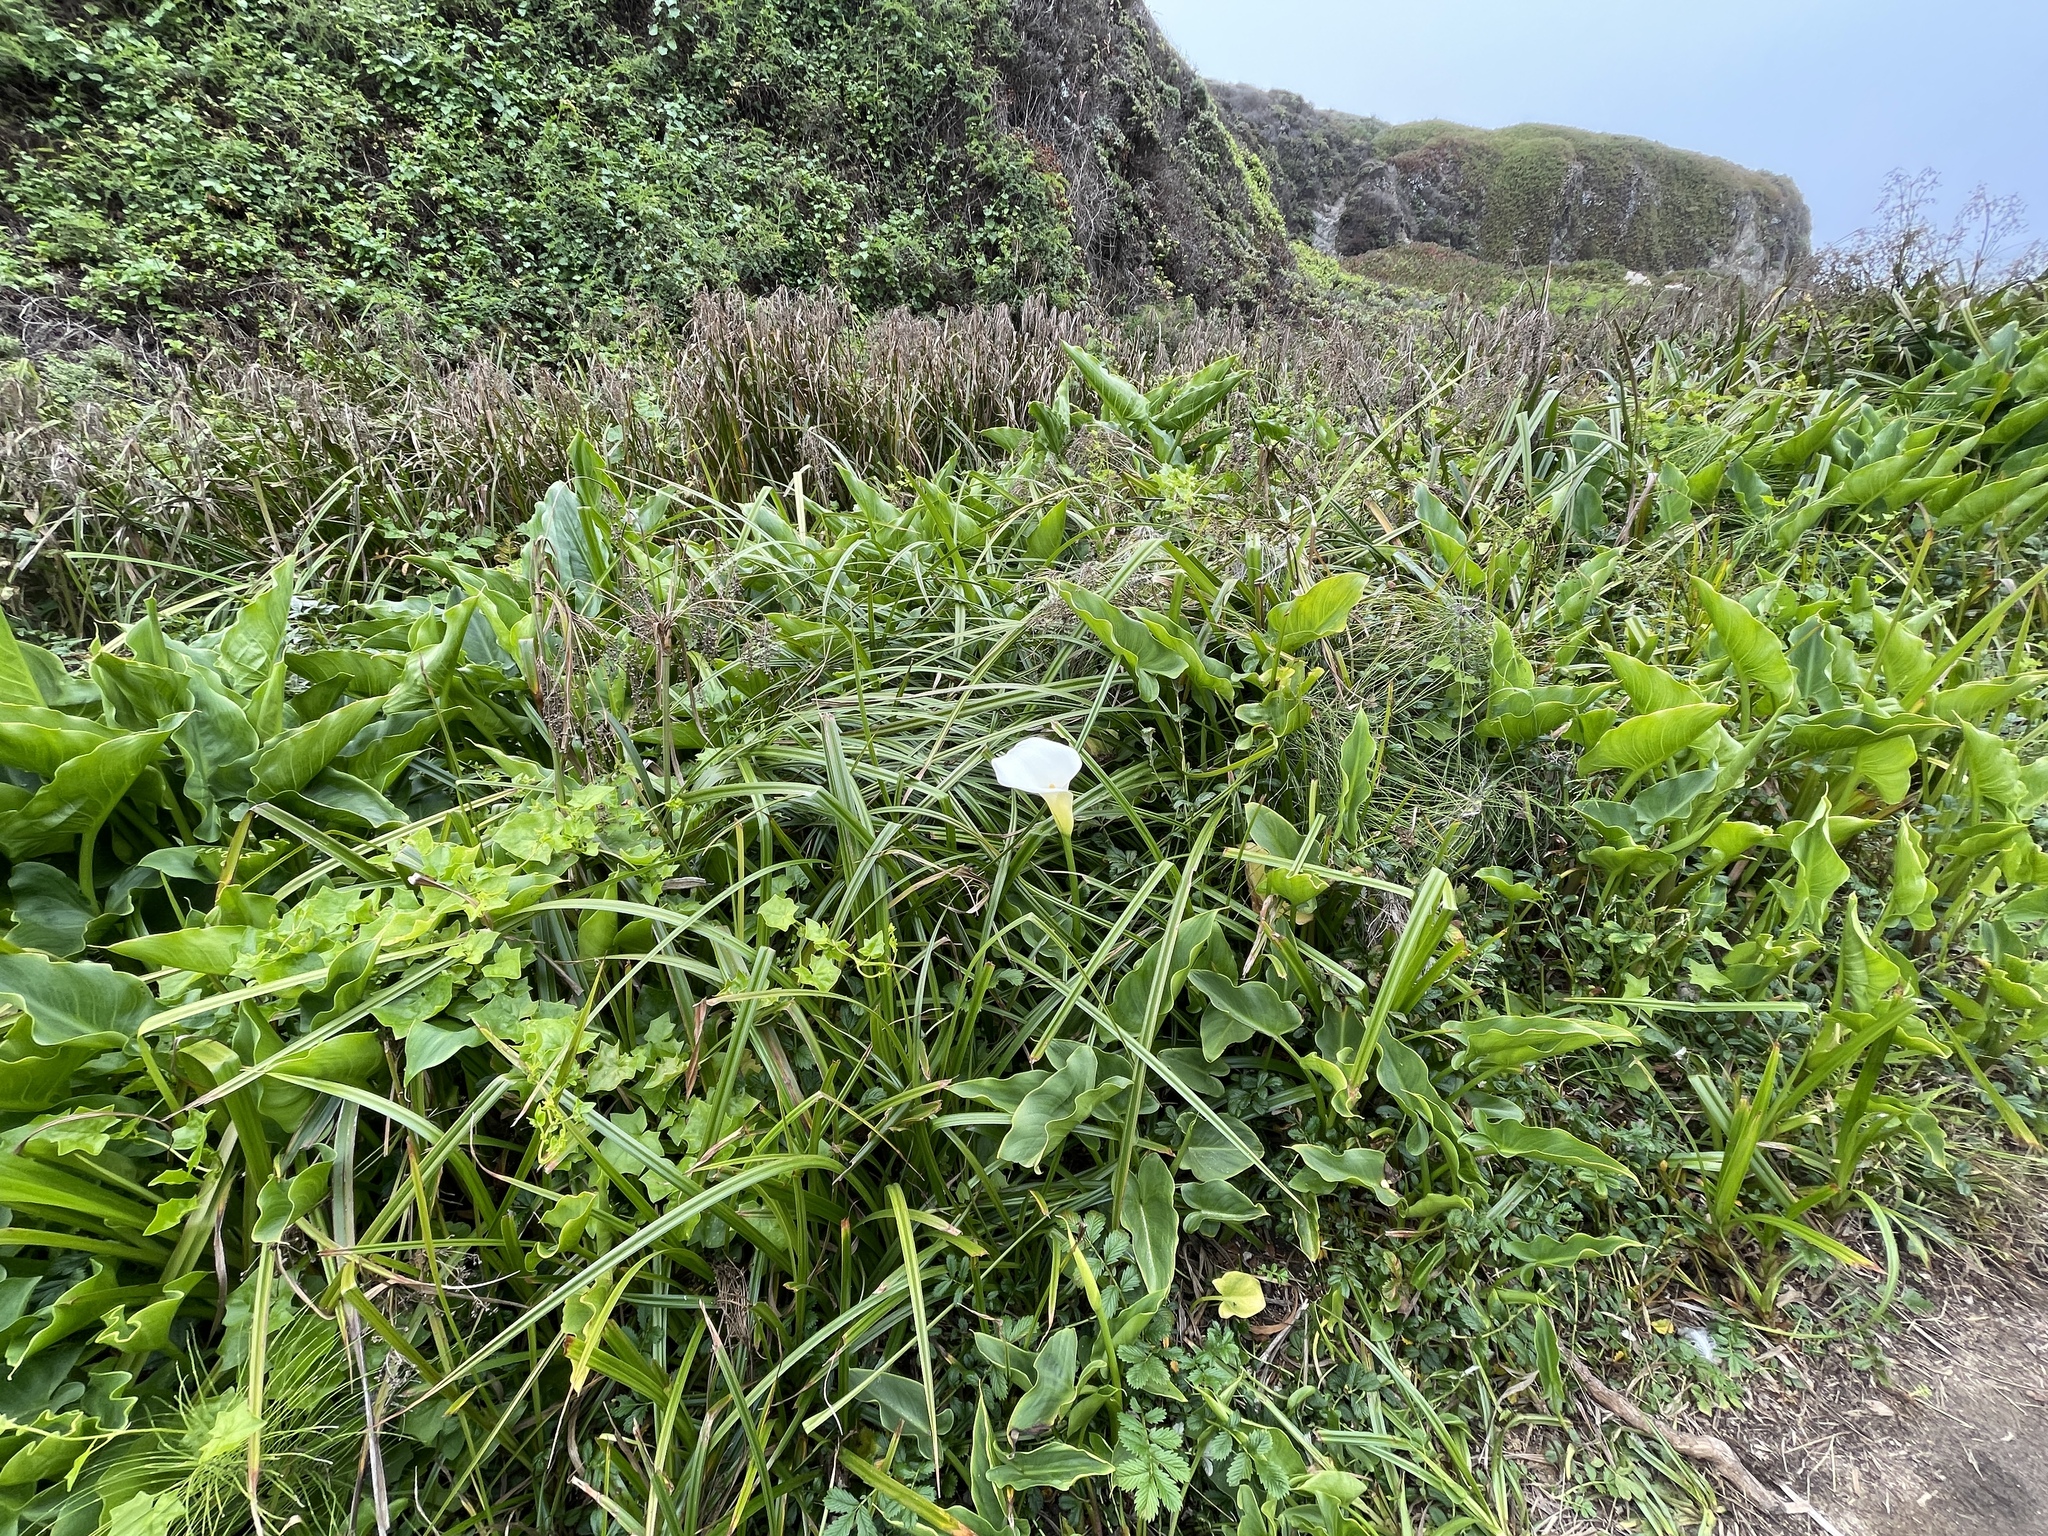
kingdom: Plantae
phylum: Tracheophyta
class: Liliopsida
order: Alismatales
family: Araceae
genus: Zantedeschia
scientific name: Zantedeschia aethiopica
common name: Altar-lily
